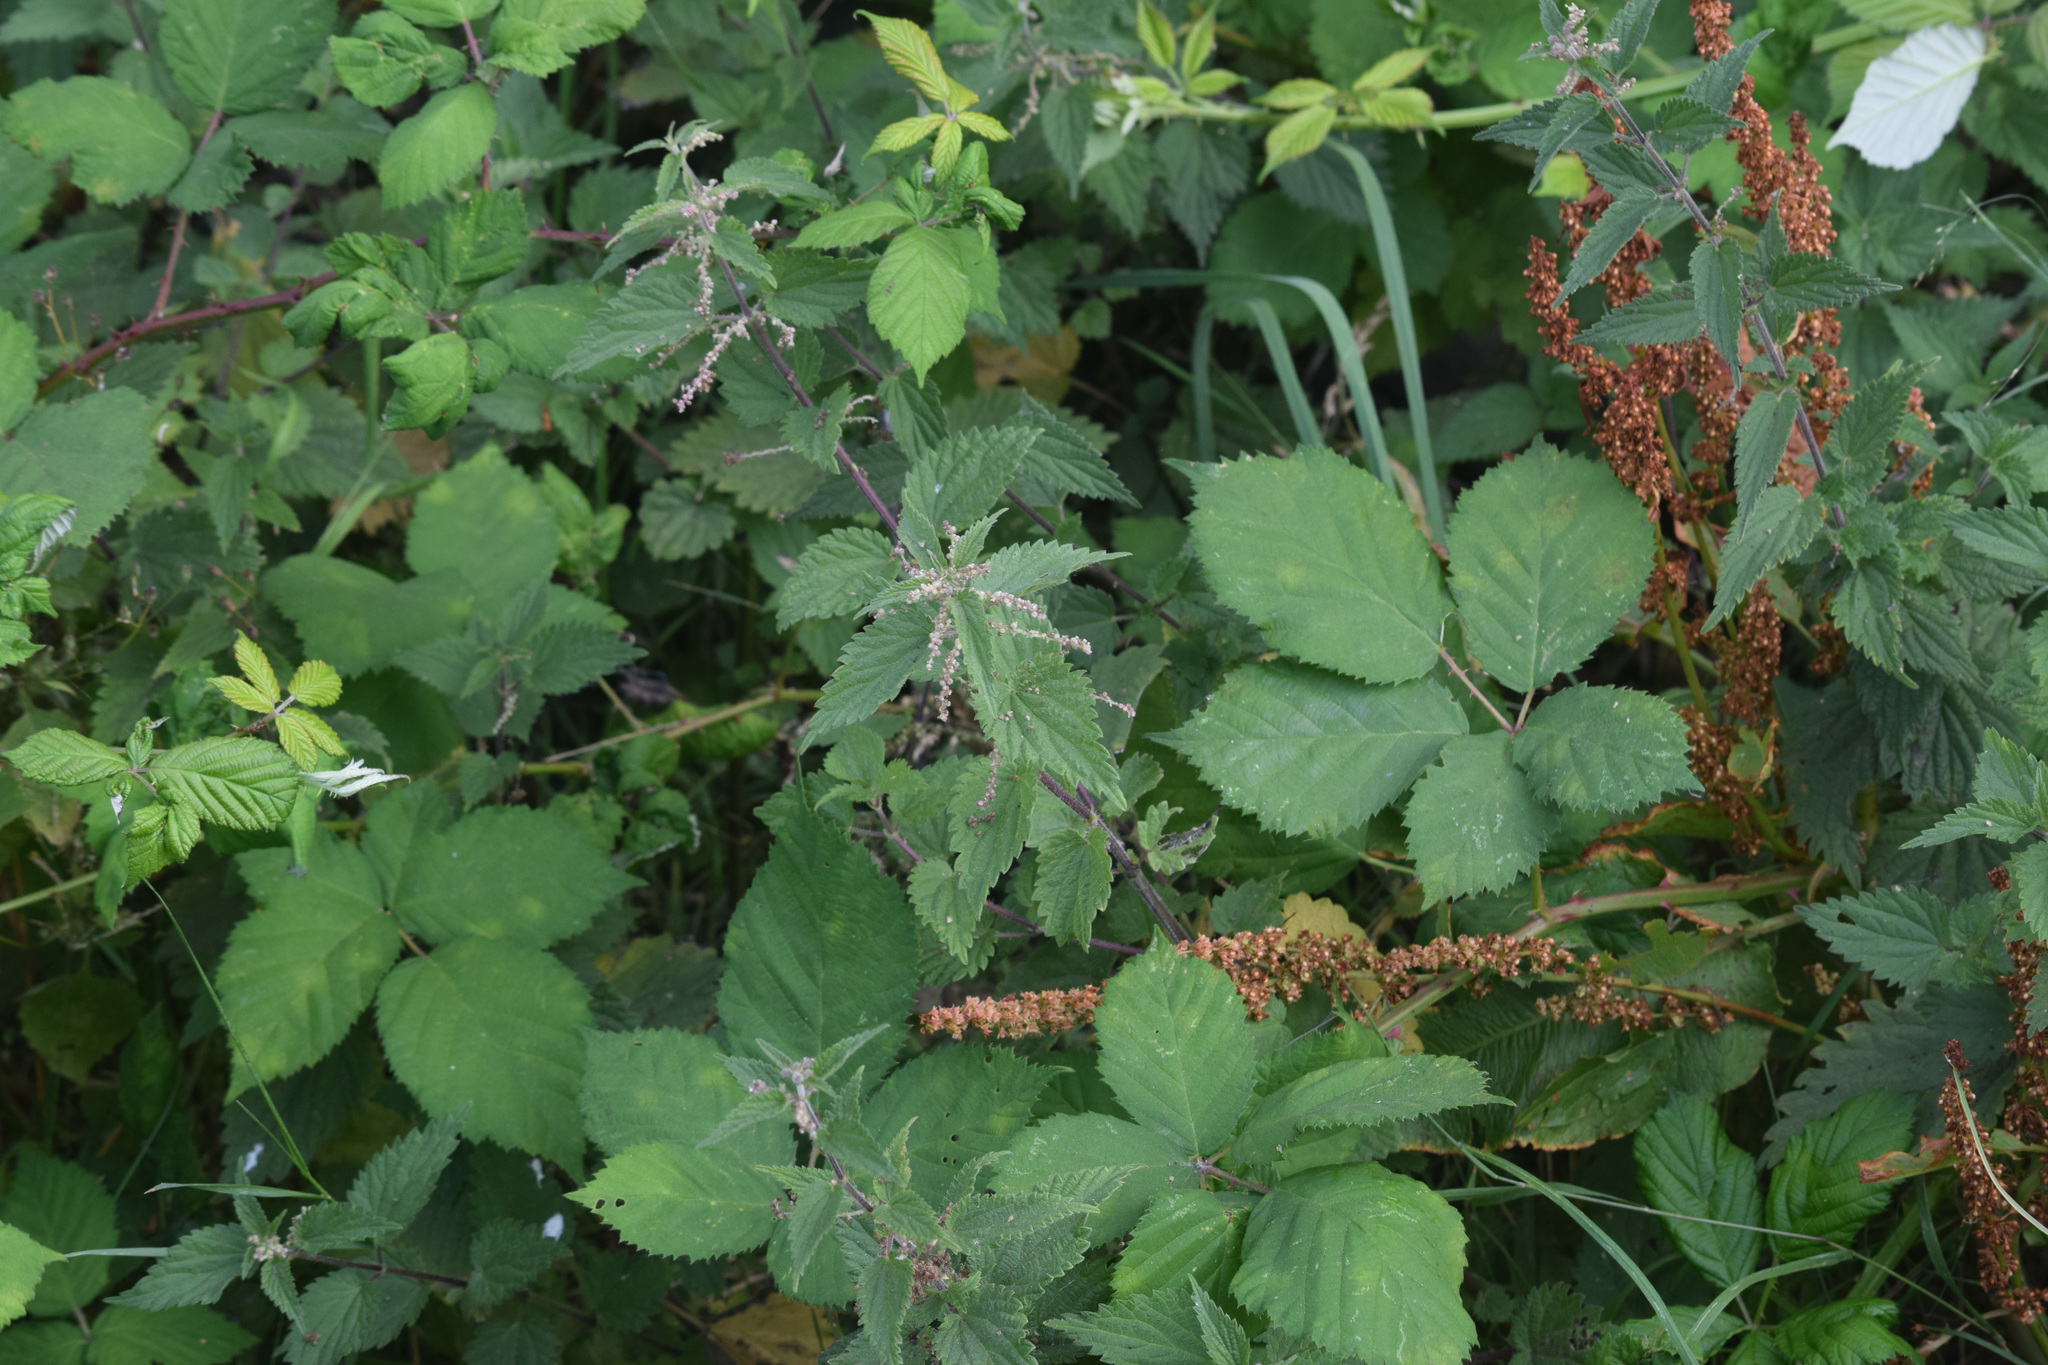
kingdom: Plantae
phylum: Tracheophyta
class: Magnoliopsida
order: Rosales
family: Urticaceae
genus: Urtica
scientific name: Urtica dioica
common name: Common nettle
